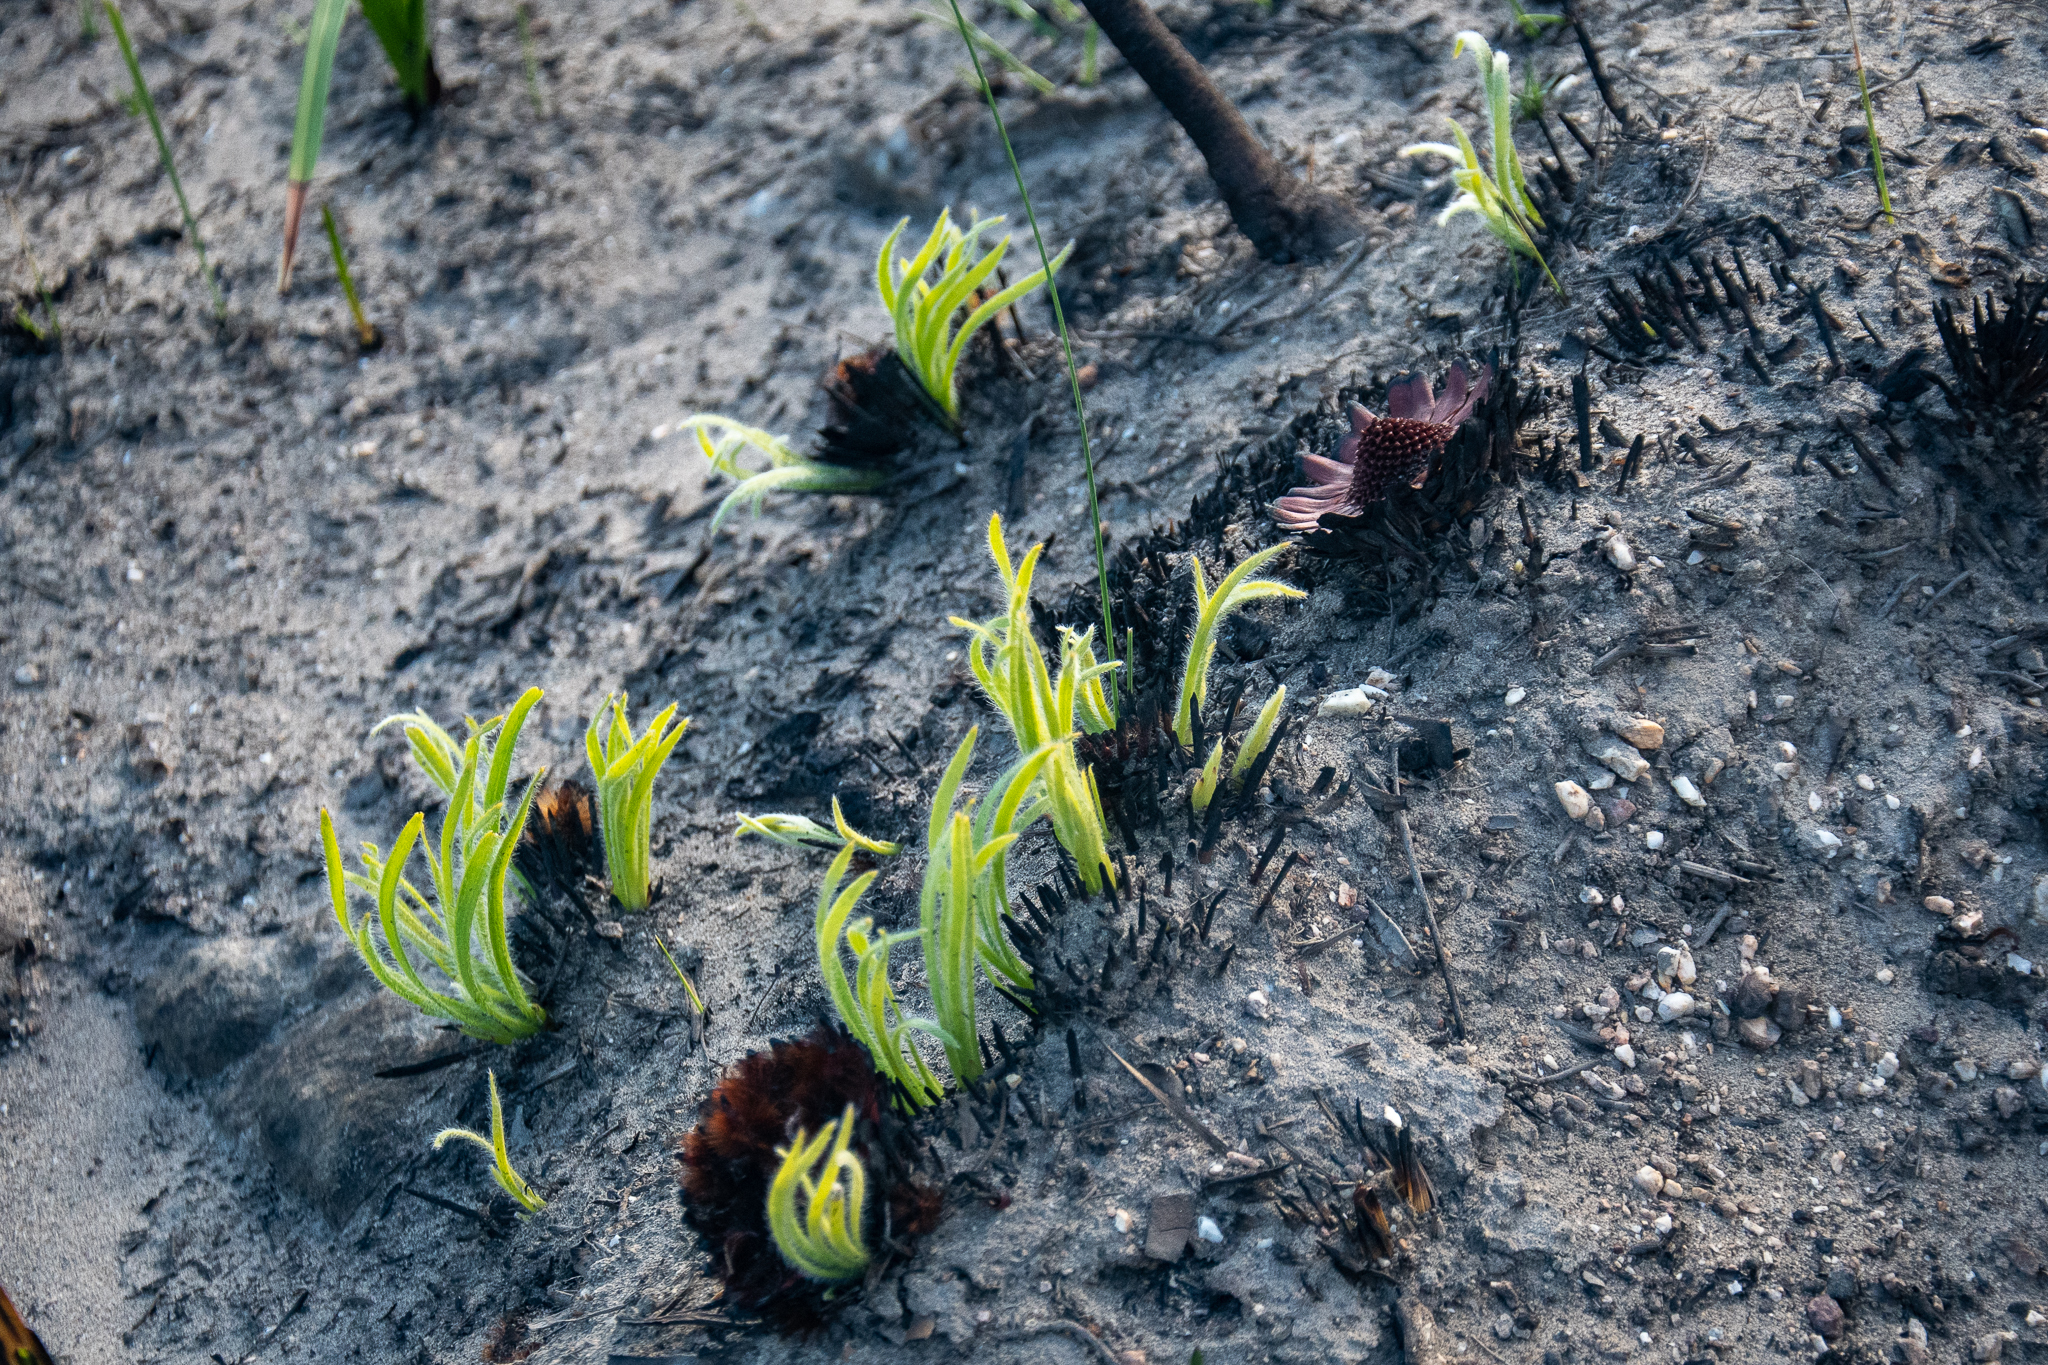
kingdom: Plantae
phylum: Tracheophyta
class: Magnoliopsida
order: Proteales
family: Proteaceae
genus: Protea
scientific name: Protea scabra
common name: Sandpaper-leaf sugarbush
